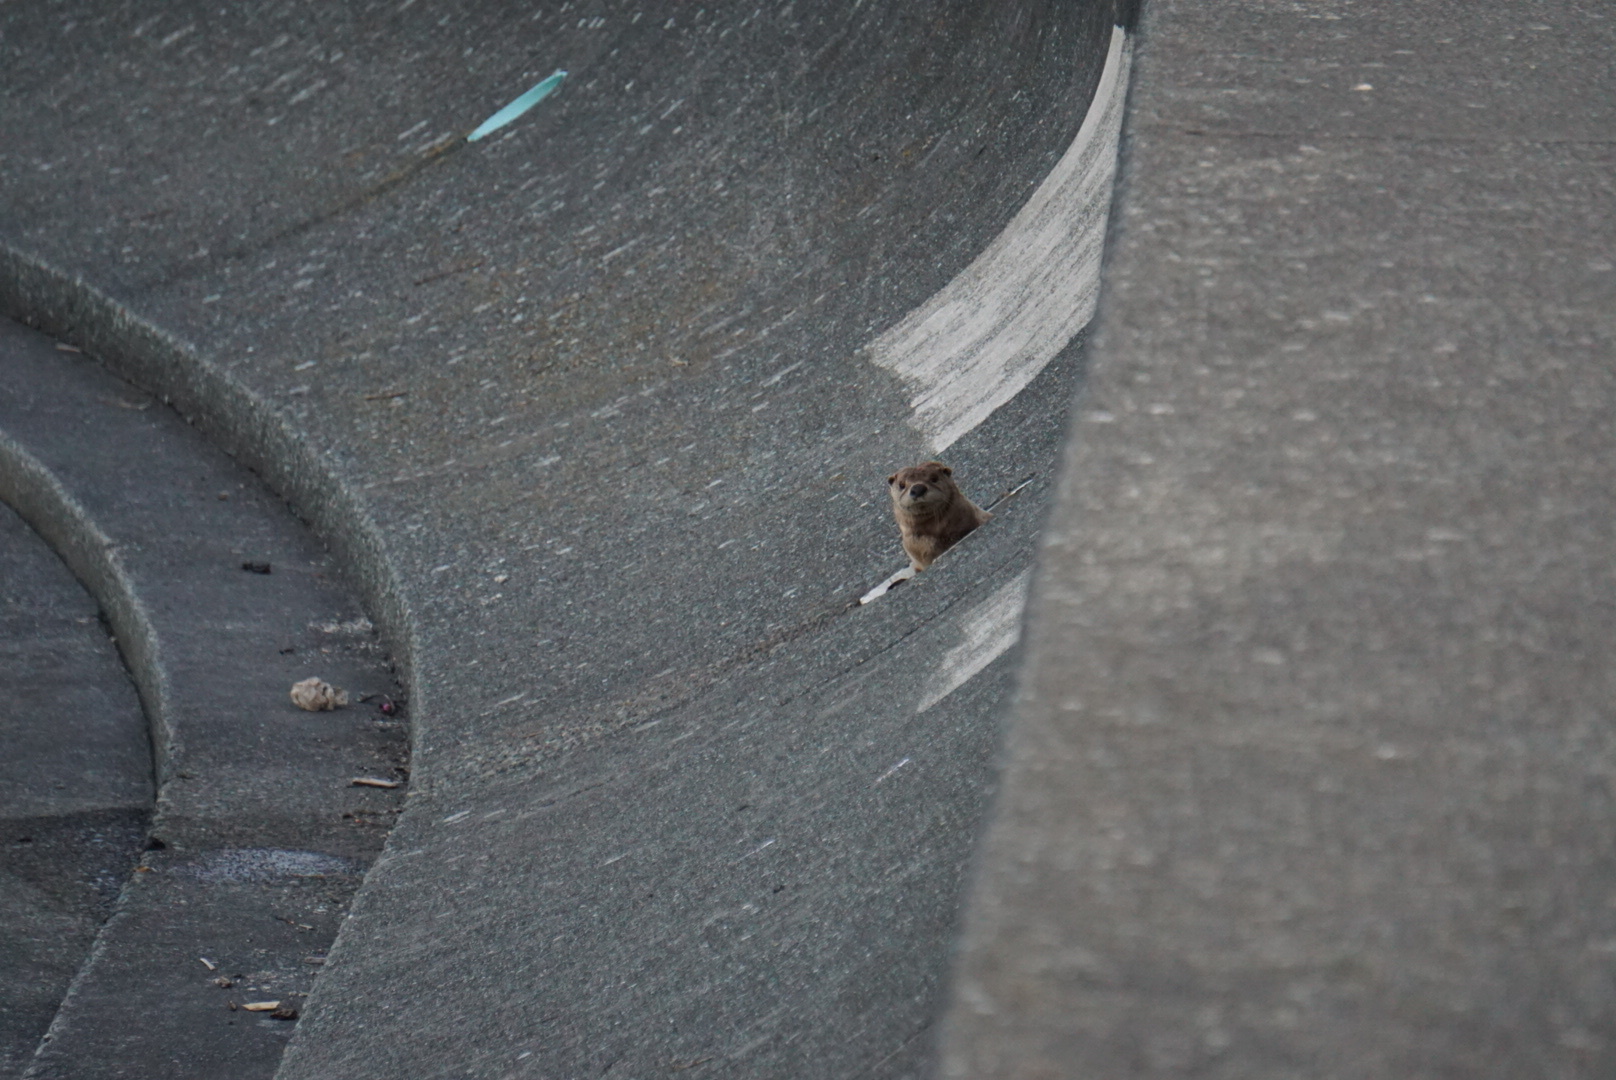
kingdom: Animalia
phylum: Chordata
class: Mammalia
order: Carnivora
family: Mustelidae
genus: Lontra
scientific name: Lontra canadensis
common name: North american river otter
